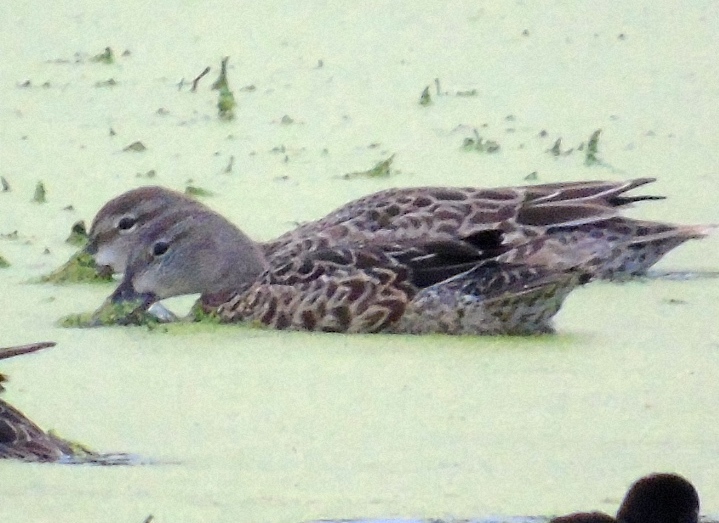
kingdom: Animalia
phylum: Chordata
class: Aves
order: Anseriformes
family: Anatidae
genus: Spatula
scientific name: Spatula discors
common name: Blue-winged teal
